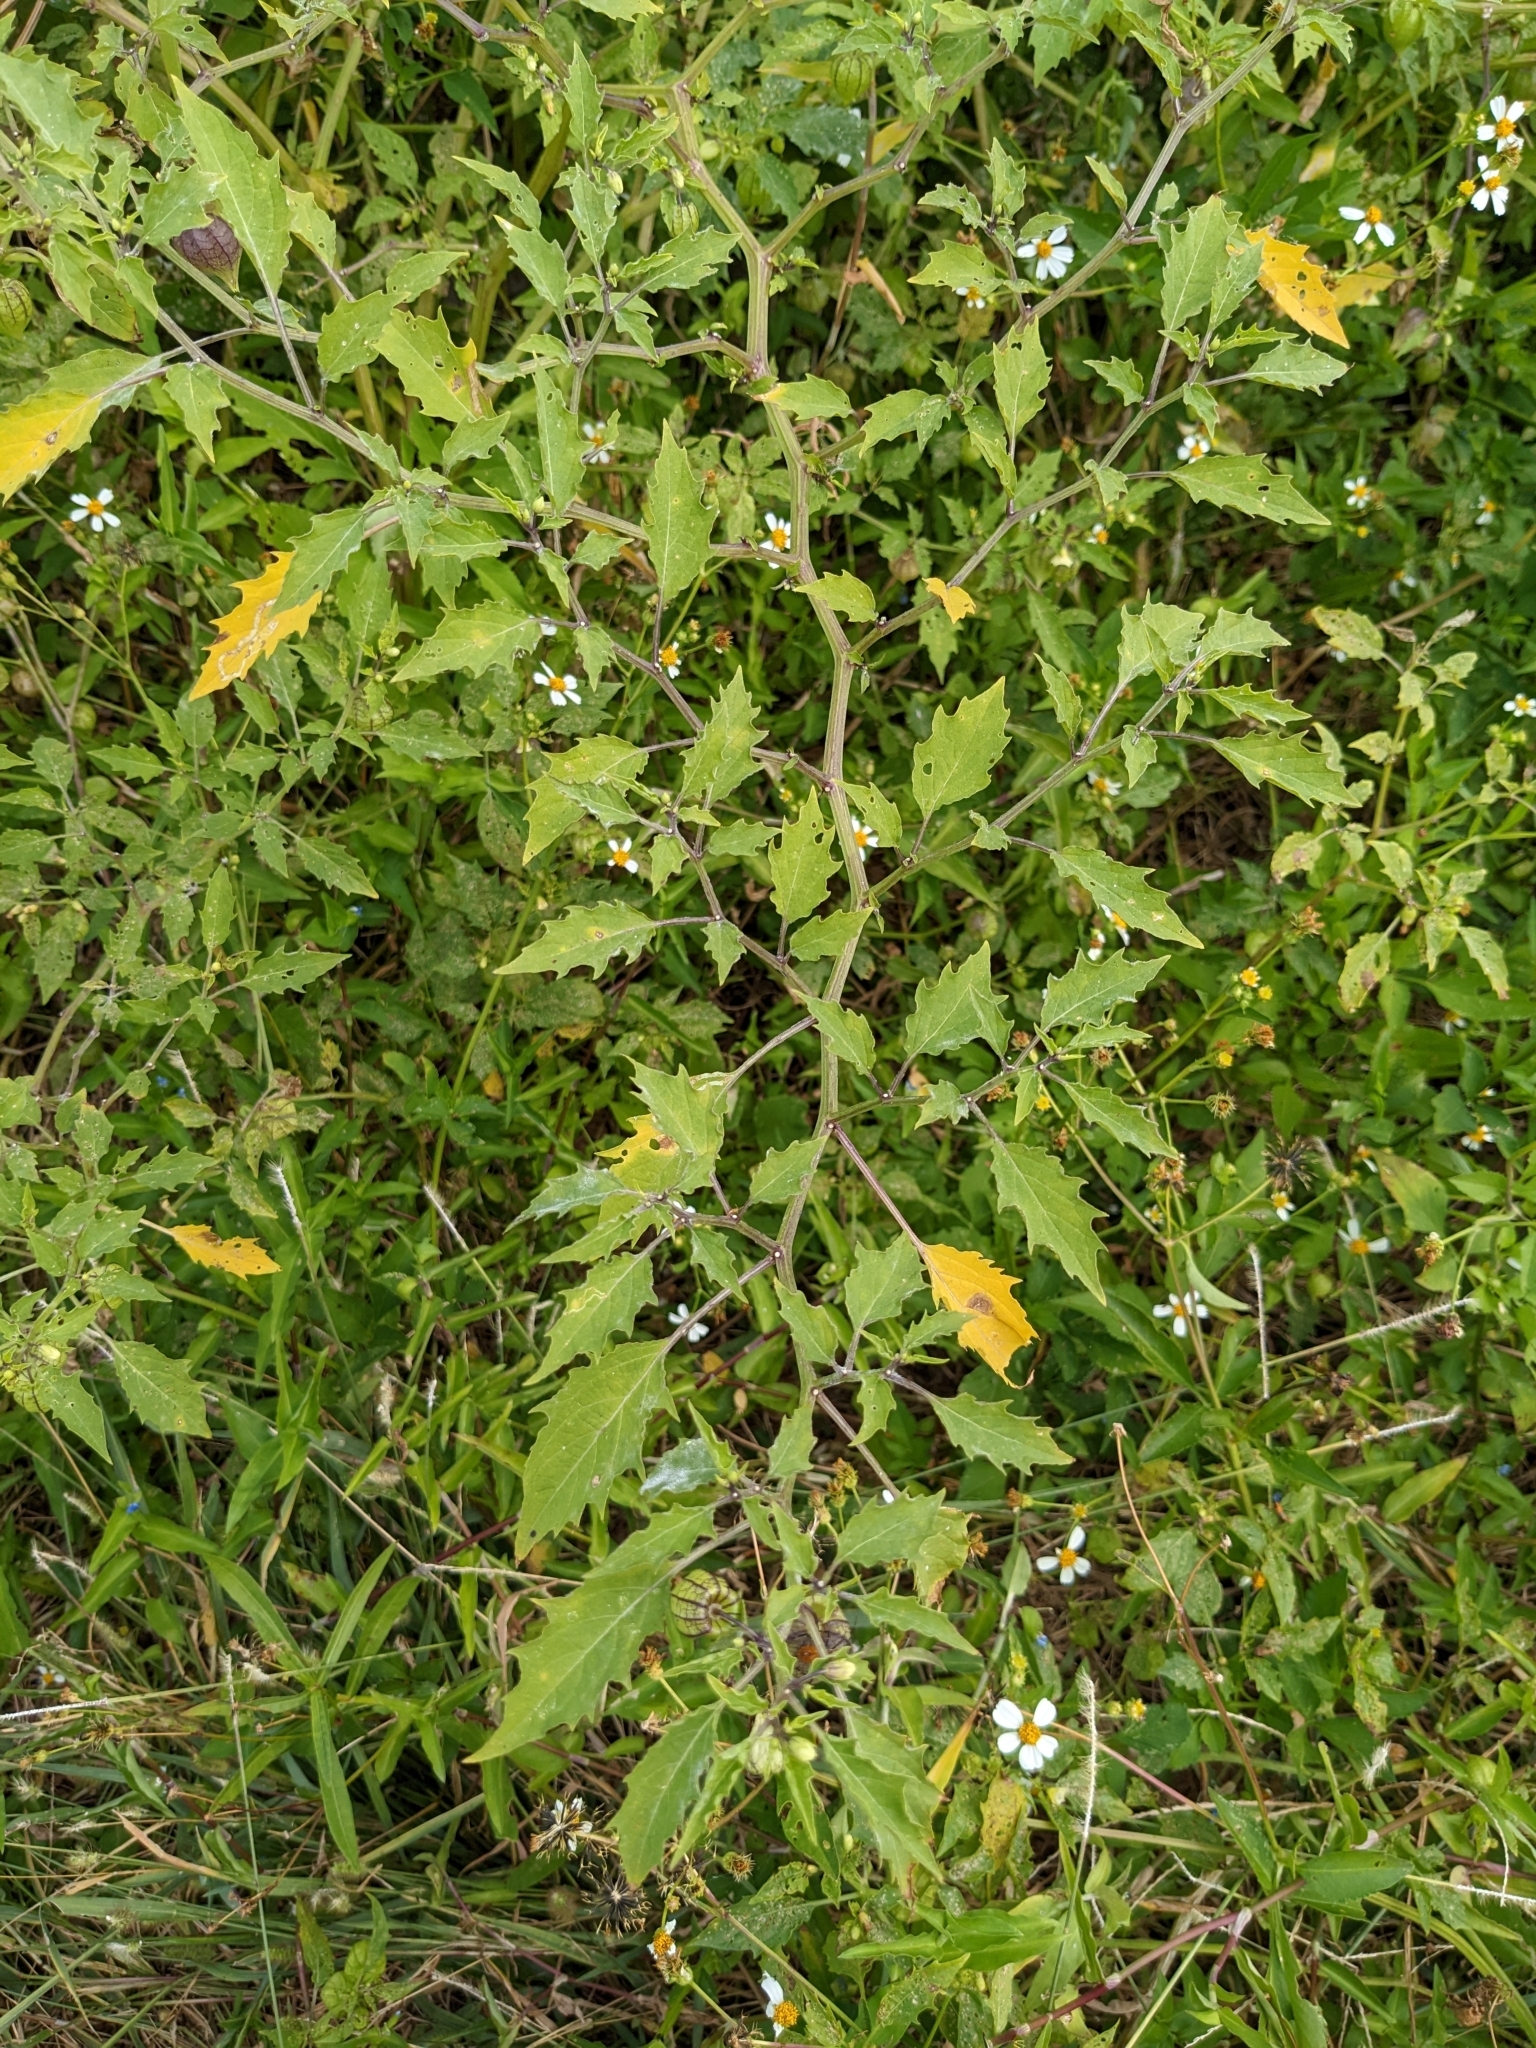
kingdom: Animalia
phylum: Arthropoda
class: Insecta
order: Hemiptera
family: Coreidae
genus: Phthiacnemia
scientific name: Phthiacnemia picta
